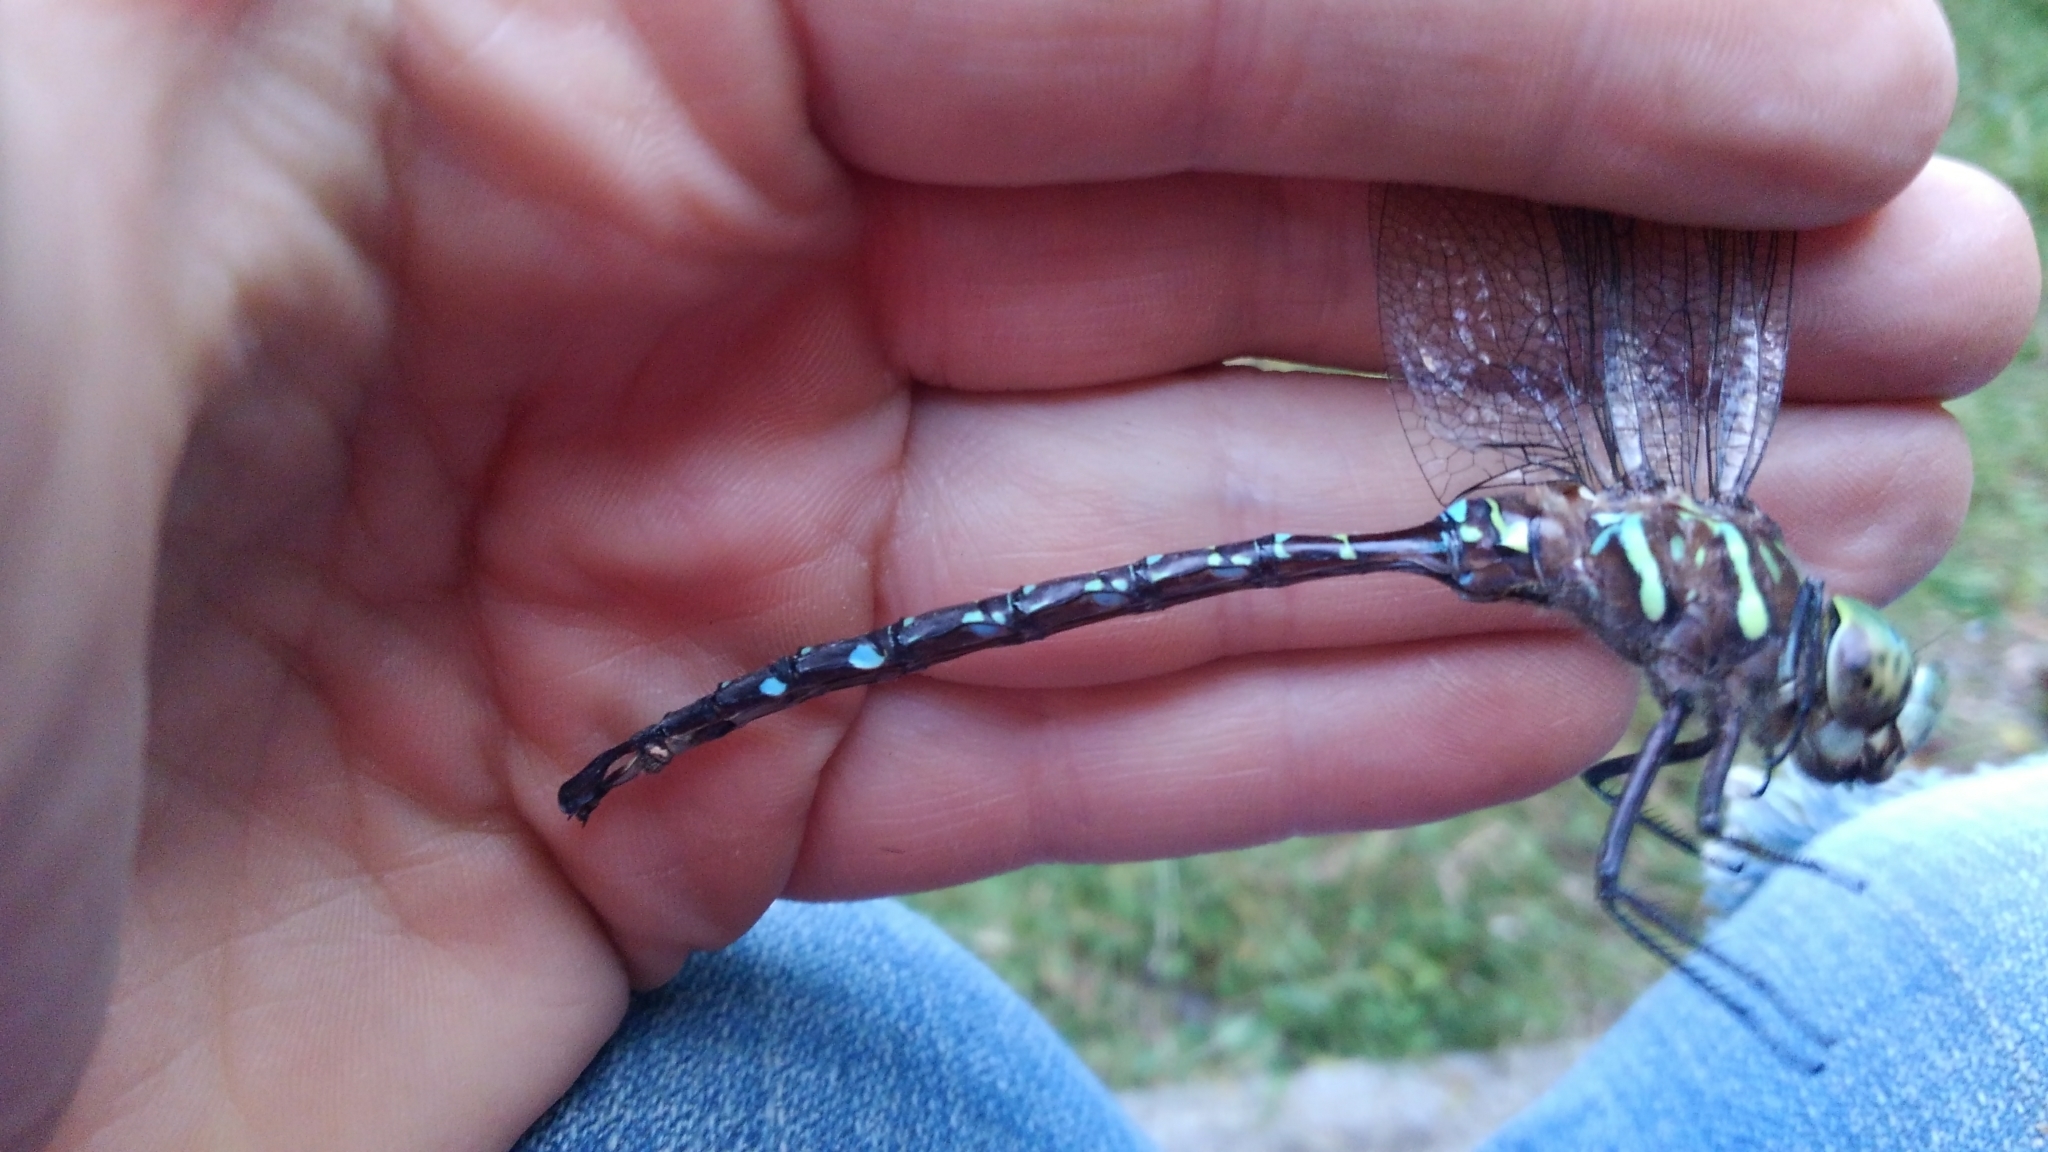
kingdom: Animalia
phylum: Arthropoda
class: Insecta
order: Odonata
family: Aeshnidae
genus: Aeshna
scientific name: Aeshna umbrosa
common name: Shadow darner
